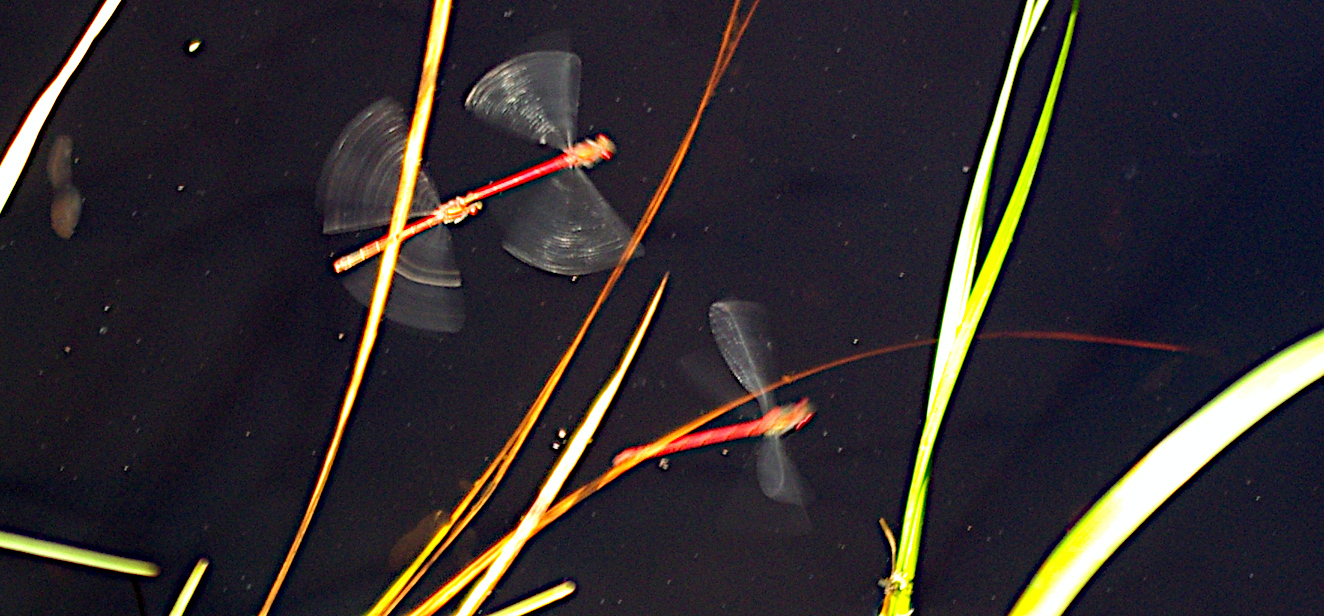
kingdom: Animalia
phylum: Arthropoda
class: Insecta
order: Odonata
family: Coenagrionidae
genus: Pyrrhosoma
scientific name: Pyrrhosoma nymphula
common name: Large red damsel
